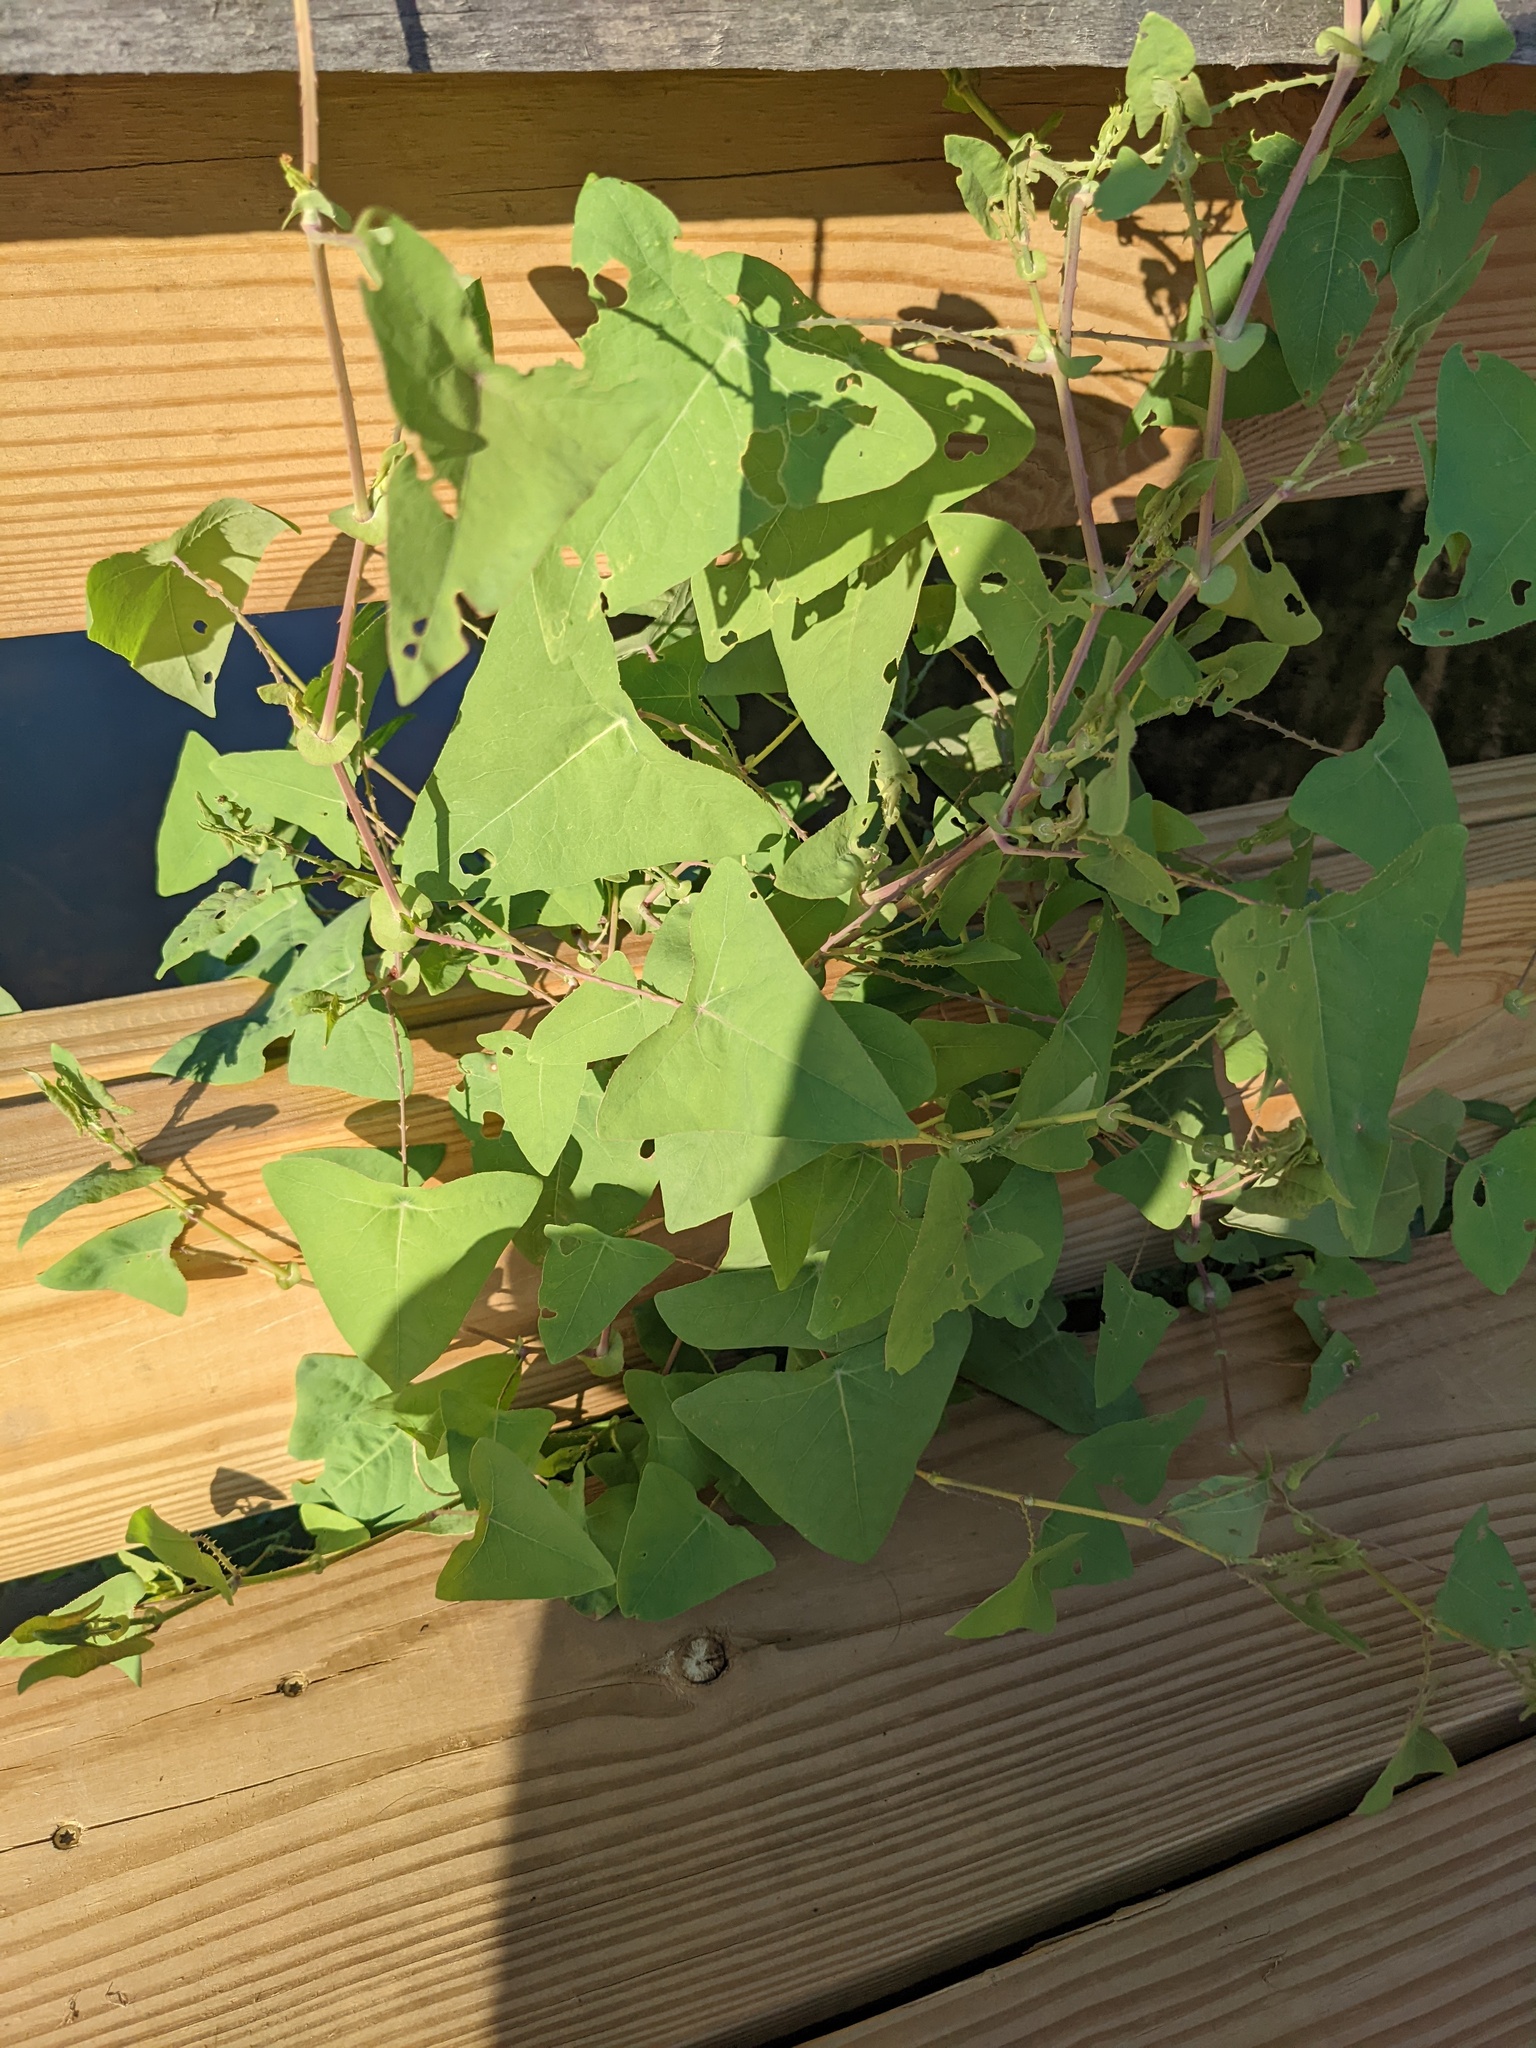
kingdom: Plantae
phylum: Tracheophyta
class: Magnoliopsida
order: Caryophyllales
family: Polygonaceae
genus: Persicaria
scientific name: Persicaria perfoliata
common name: Asiatic tearthumb
